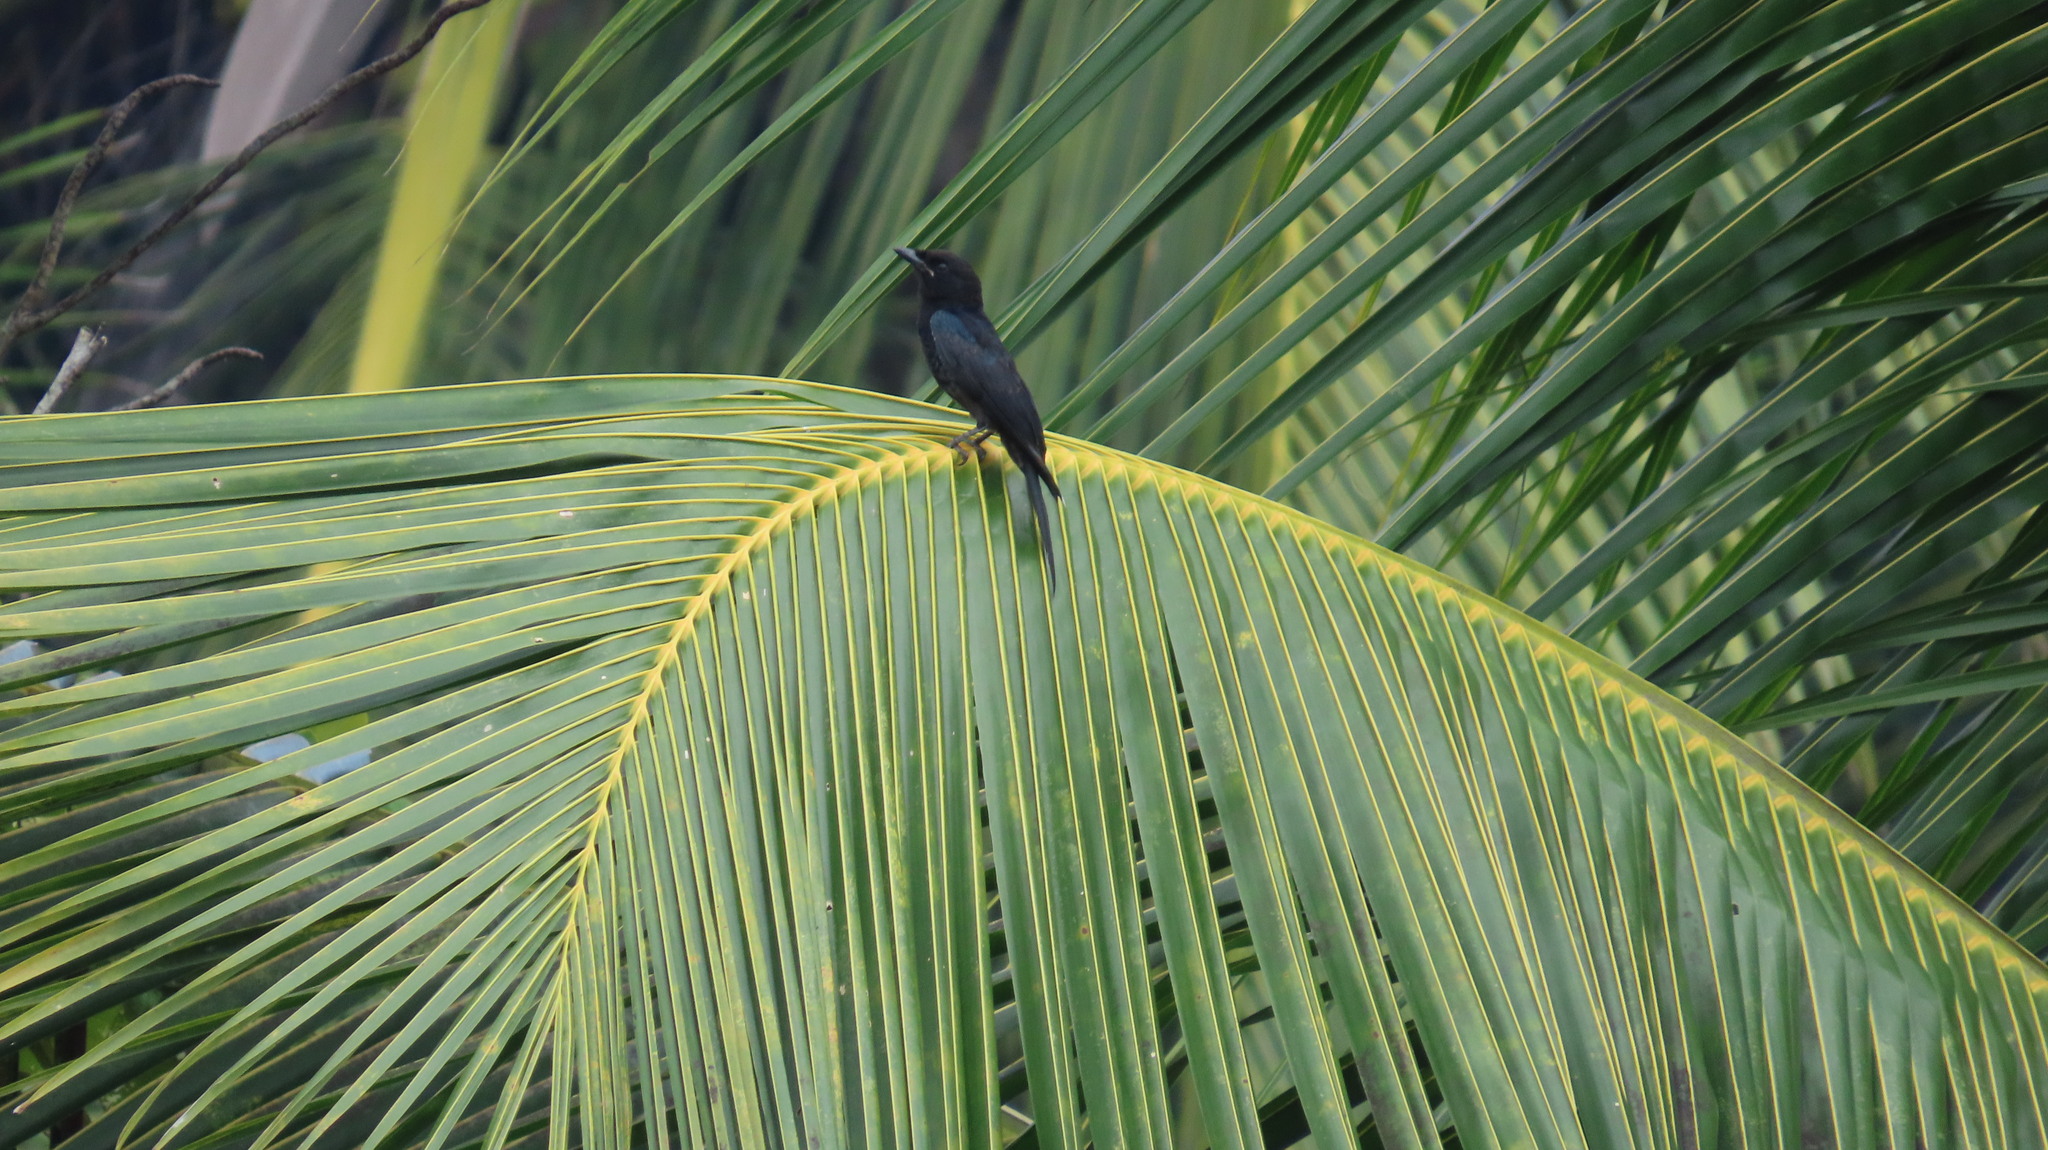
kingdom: Animalia
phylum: Chordata
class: Aves
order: Passeriformes
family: Dicruridae
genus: Dicrurus
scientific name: Dicrurus macrocercus
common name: Black drongo
